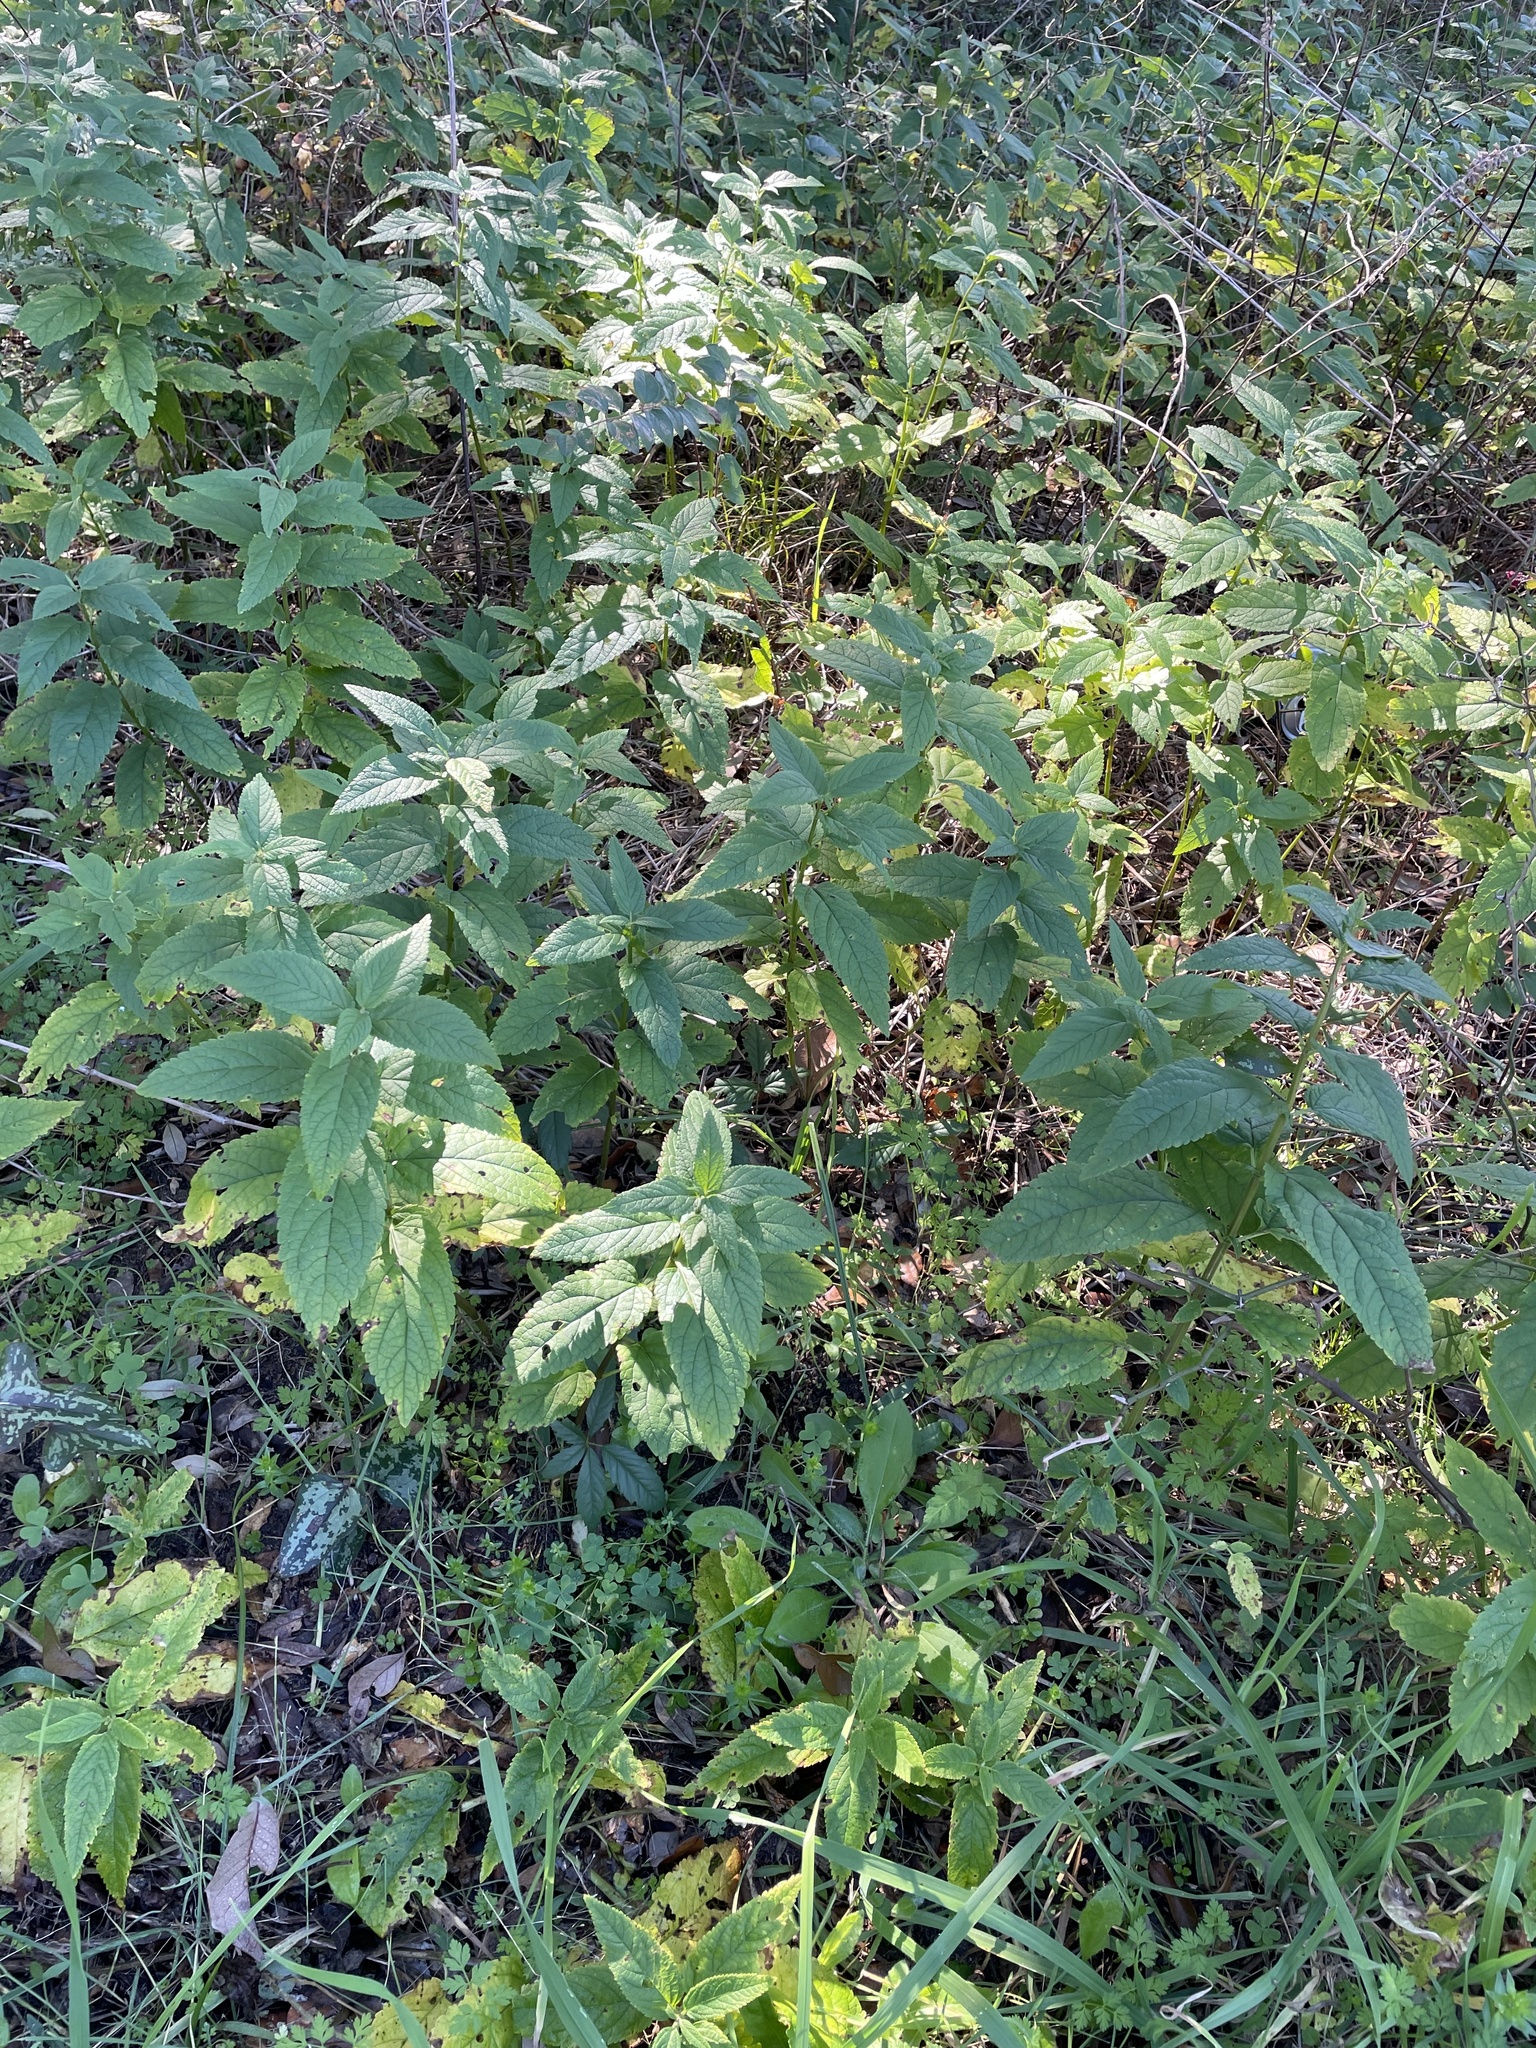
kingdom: Plantae
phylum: Tracheophyta
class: Magnoliopsida
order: Lamiales
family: Lamiaceae
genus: Teucrium
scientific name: Teucrium canadense
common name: American germander
